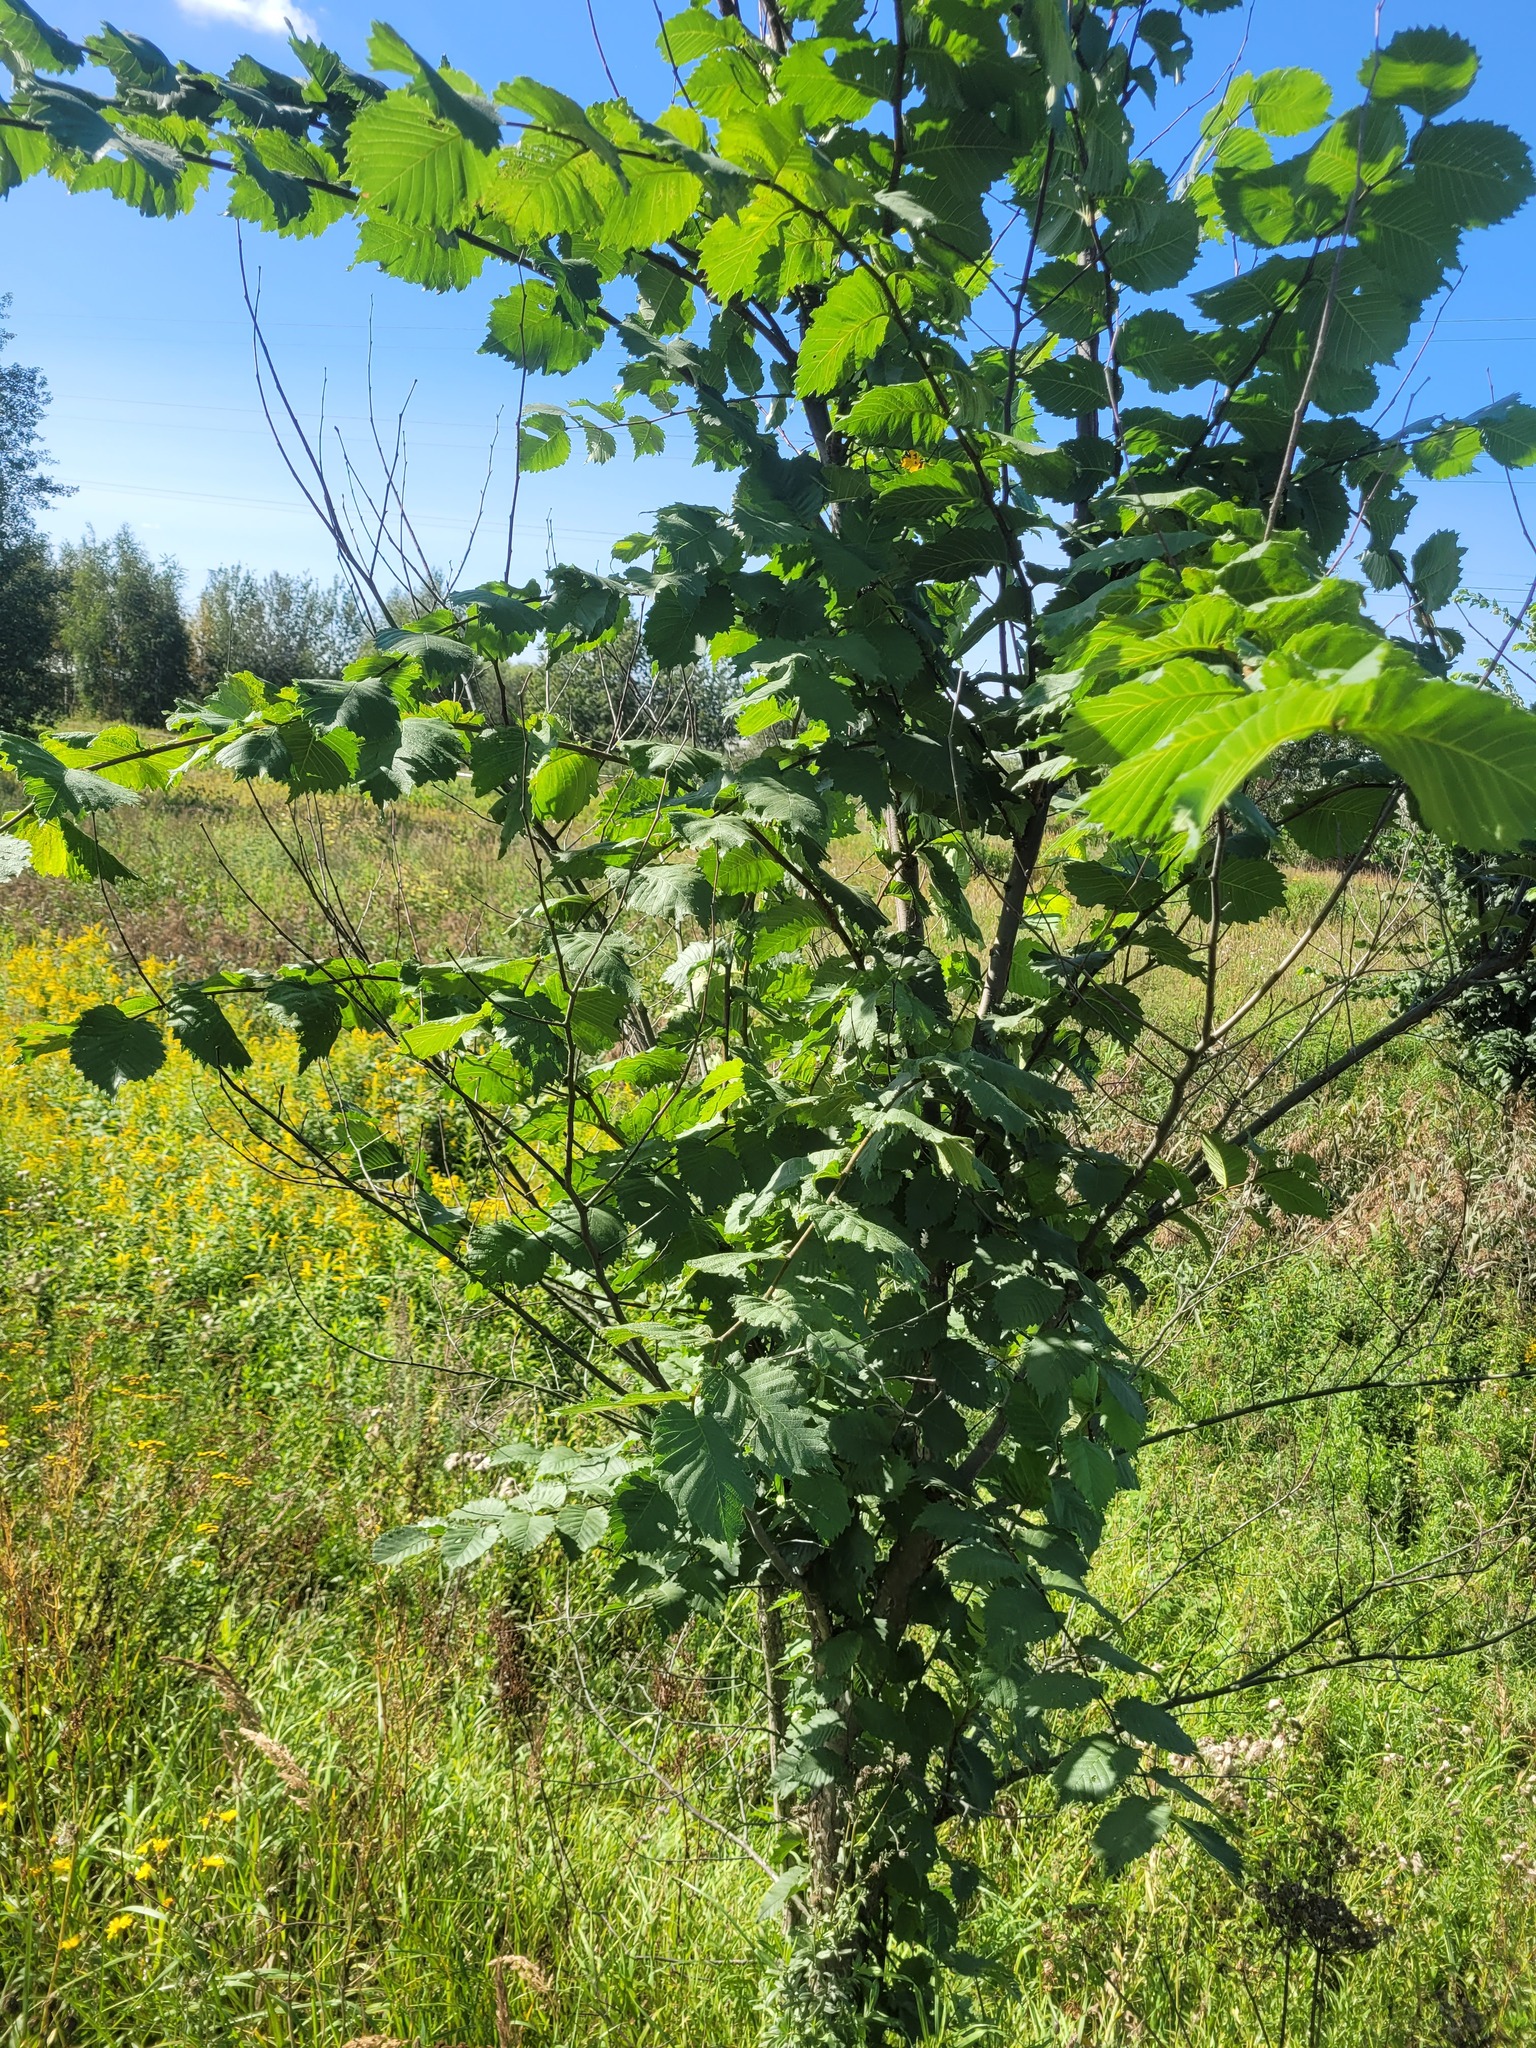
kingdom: Plantae
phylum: Tracheophyta
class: Magnoliopsida
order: Rosales
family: Ulmaceae
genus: Ulmus
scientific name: Ulmus laevis
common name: European white-elm
